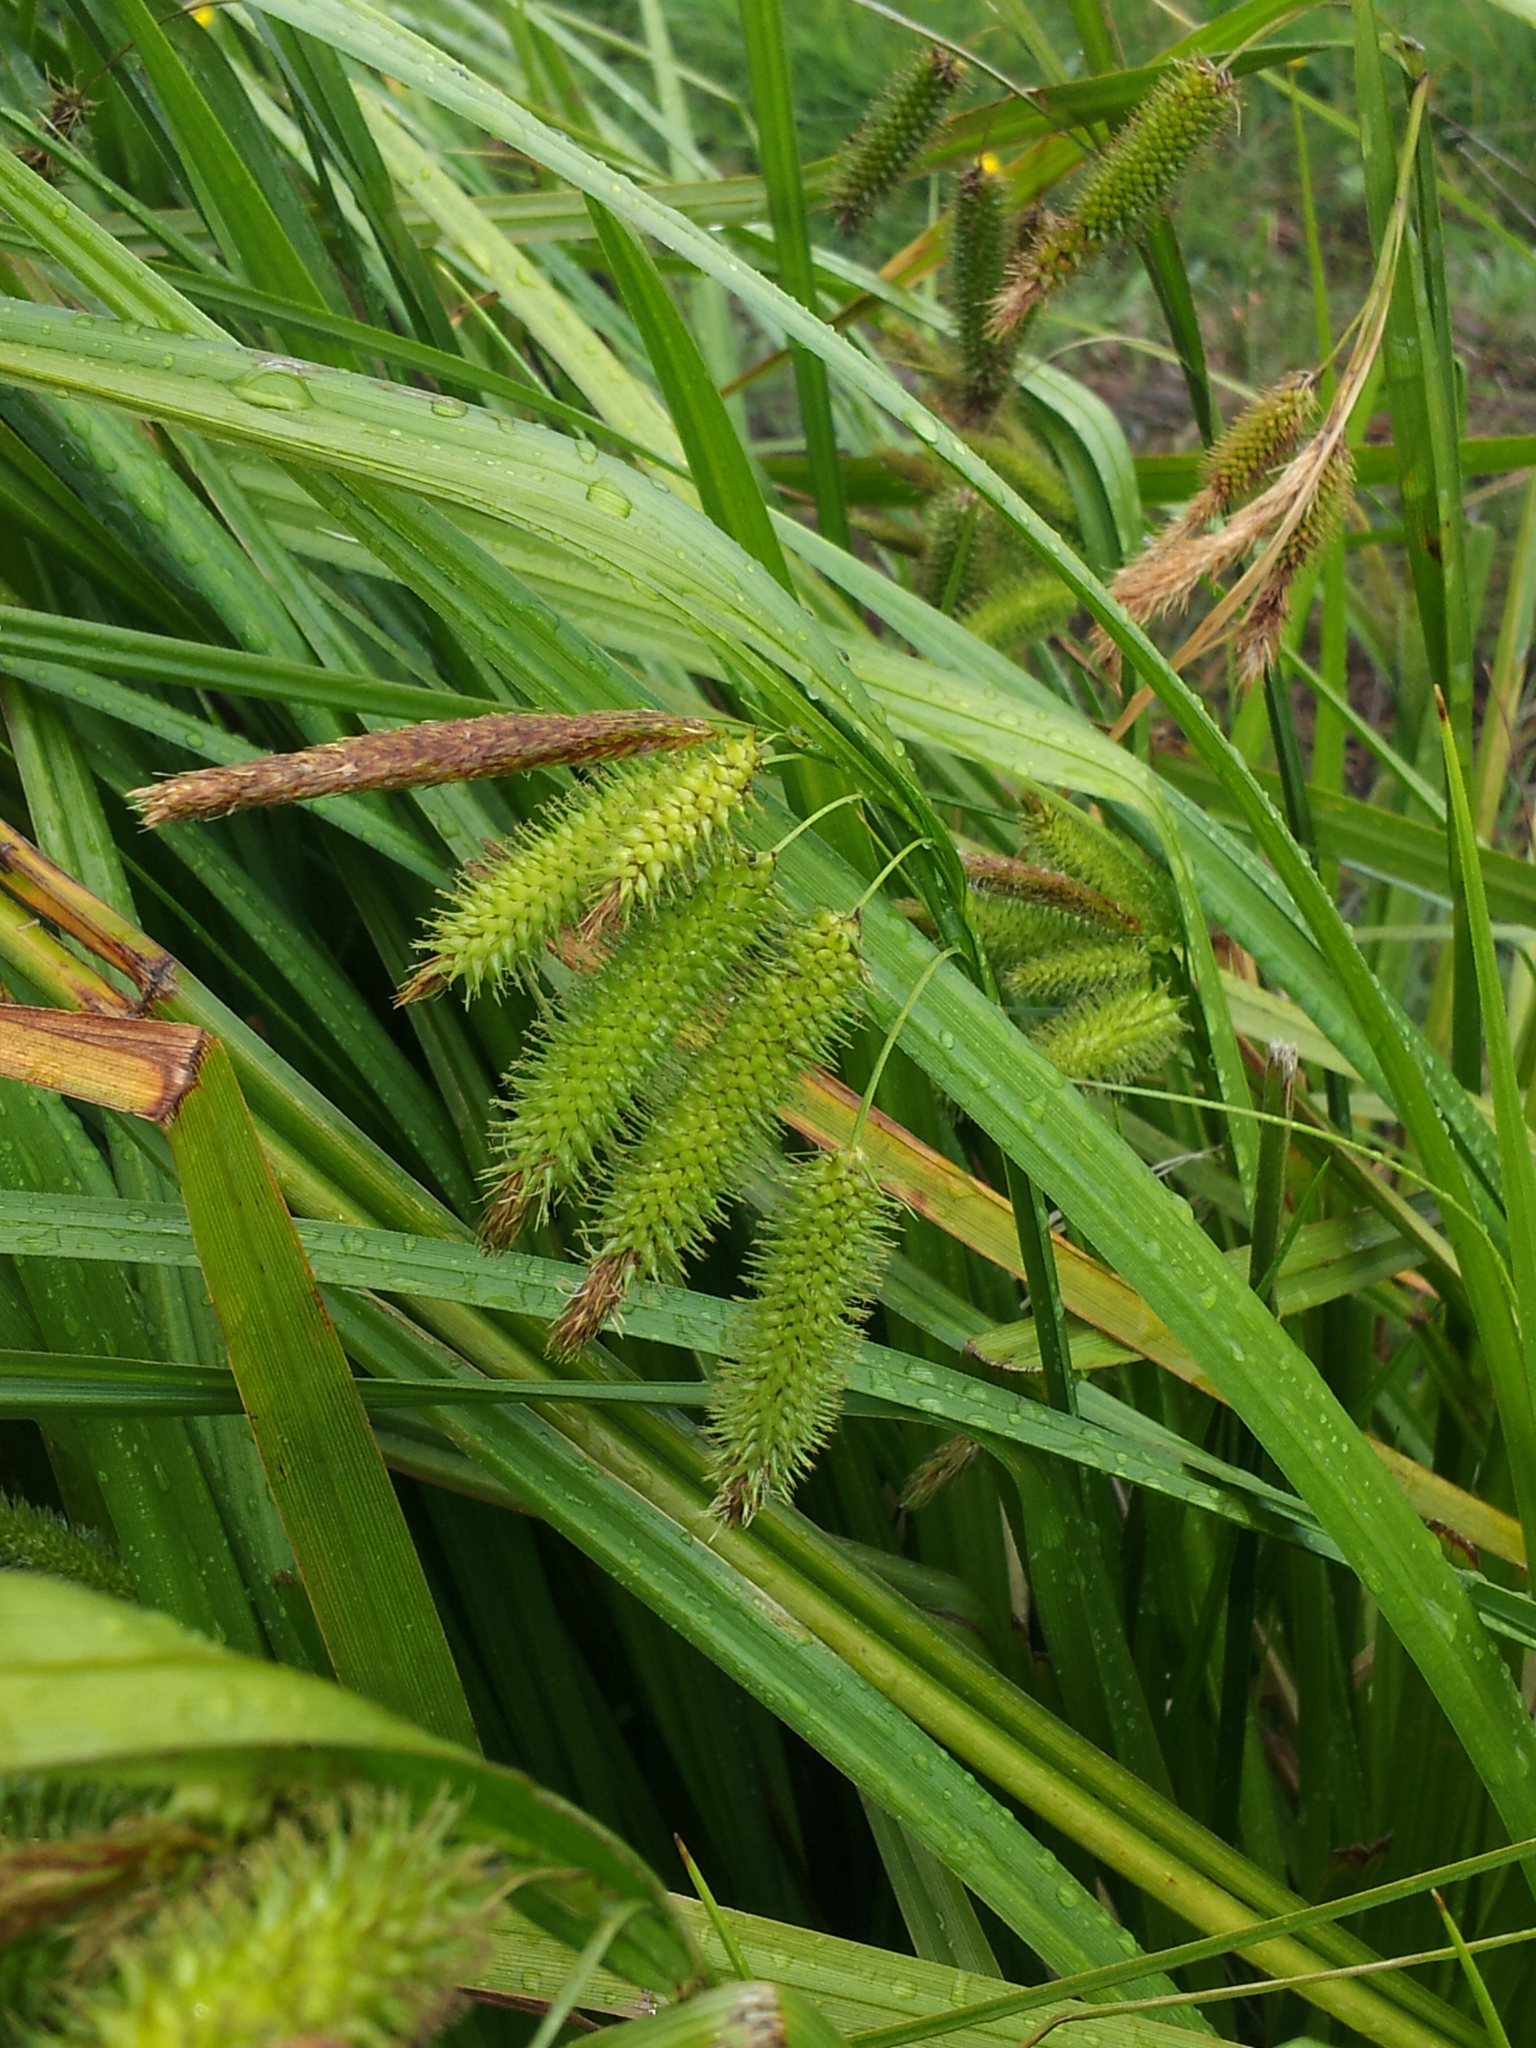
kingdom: Plantae
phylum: Tracheophyta
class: Liliopsida
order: Poales
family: Cyperaceae
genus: Carex
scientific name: Carex fascicularis
